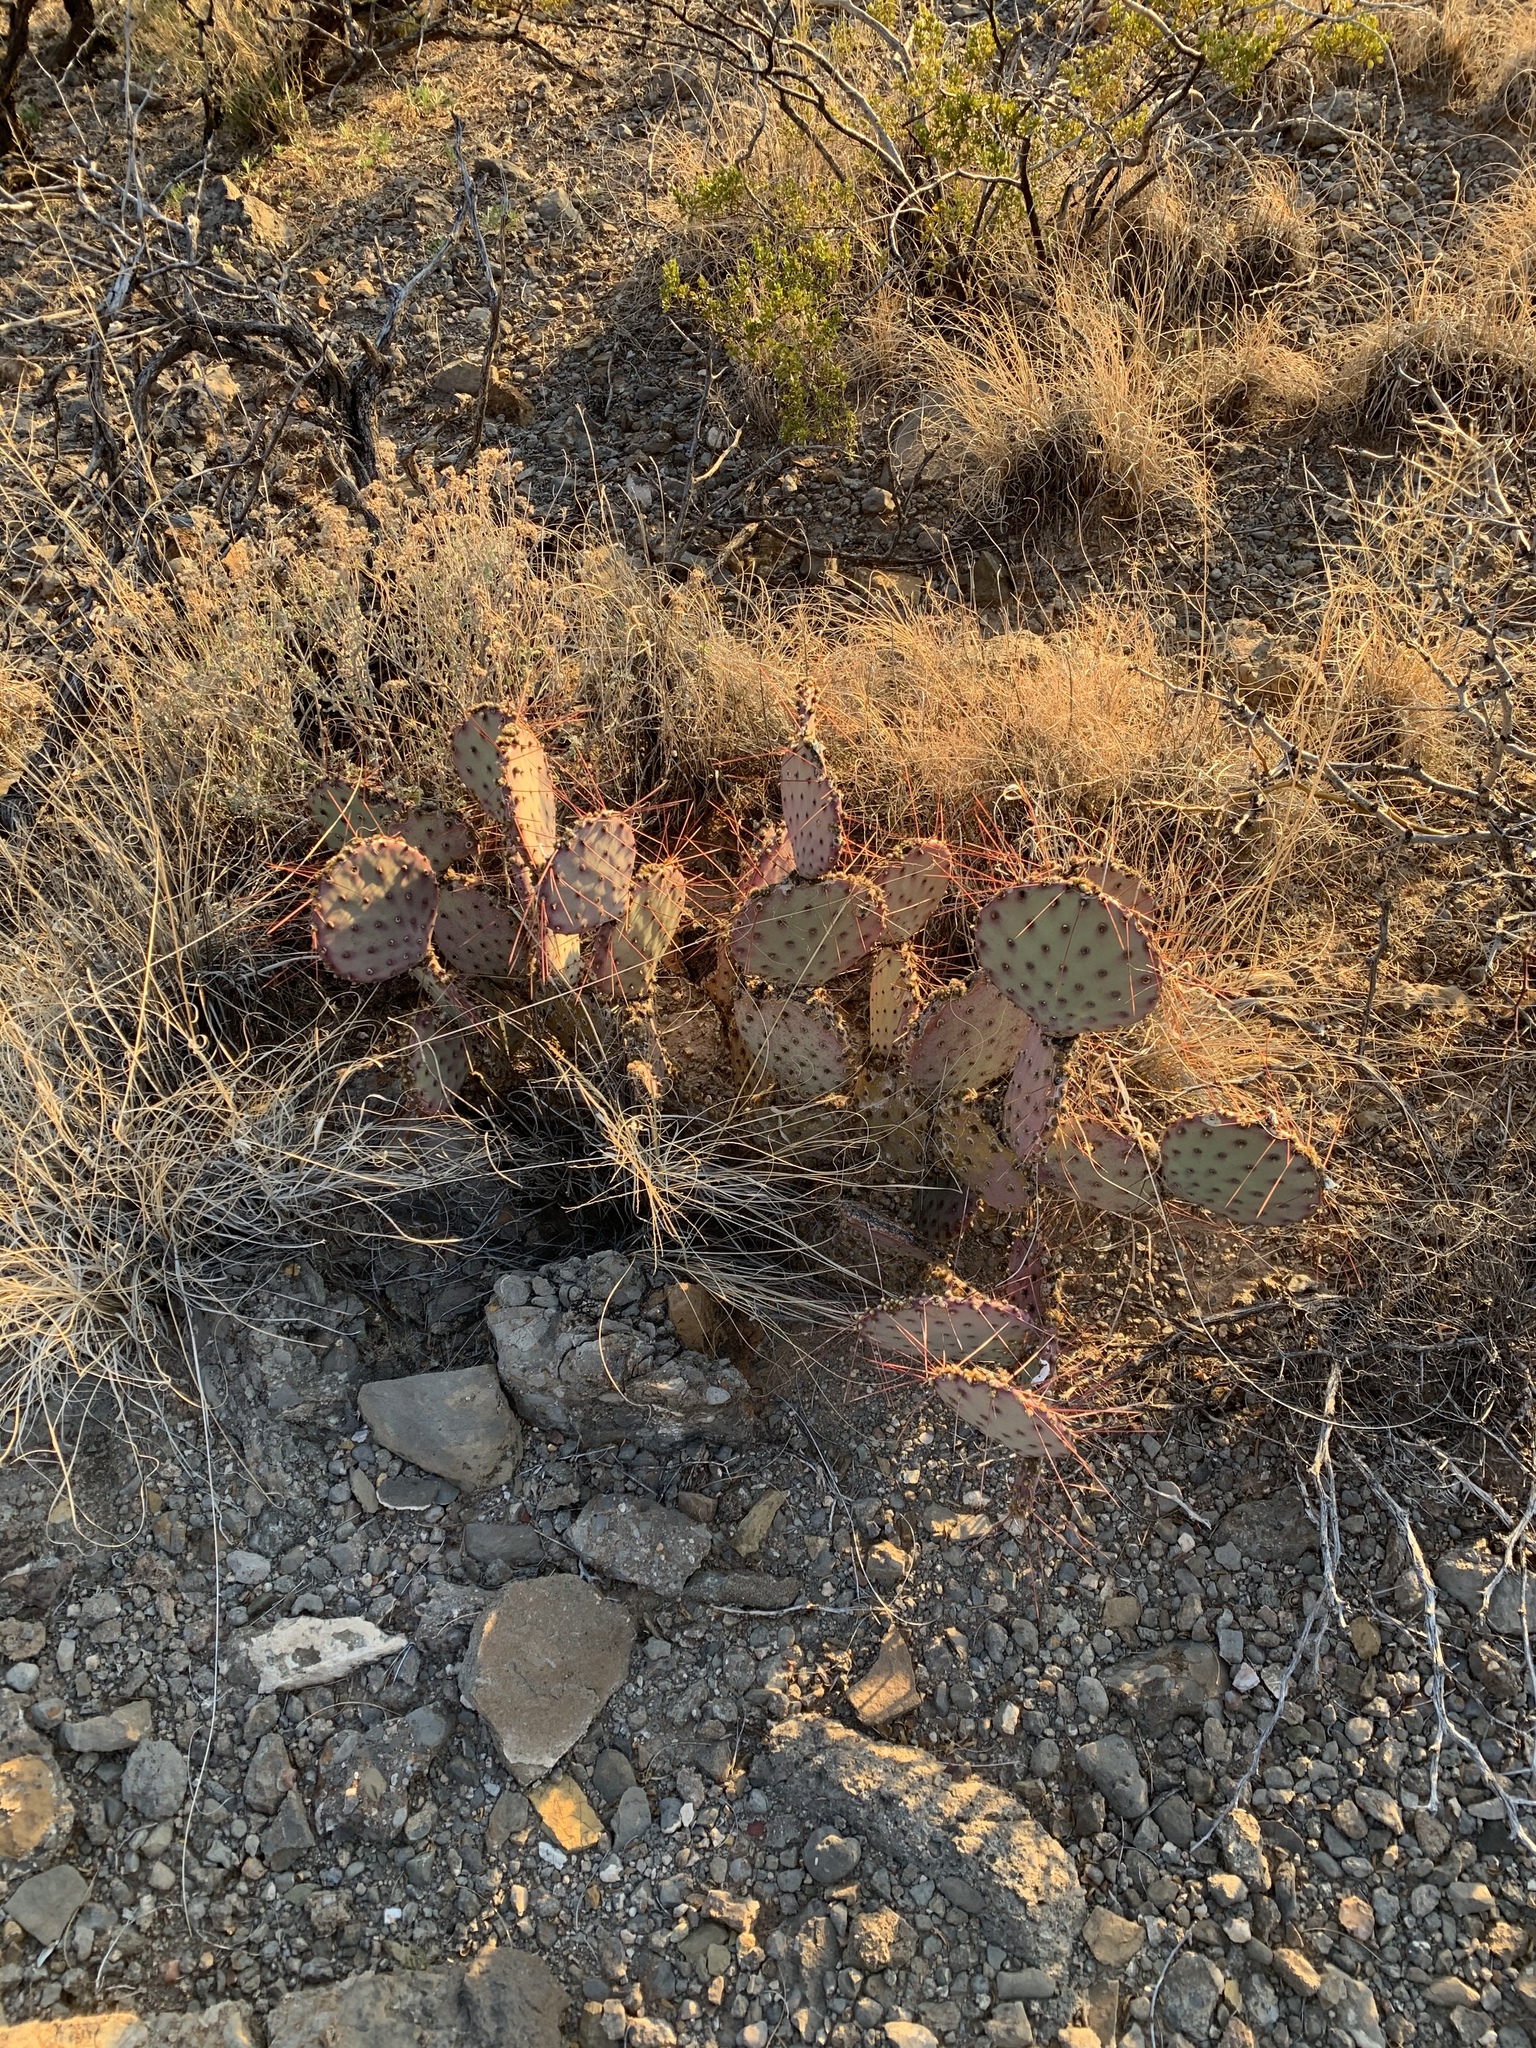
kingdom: Plantae
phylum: Tracheophyta
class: Magnoliopsida
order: Caryophyllales
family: Cactaceae
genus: Opuntia
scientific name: Opuntia macrocentra
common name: Purple prickly-pear
